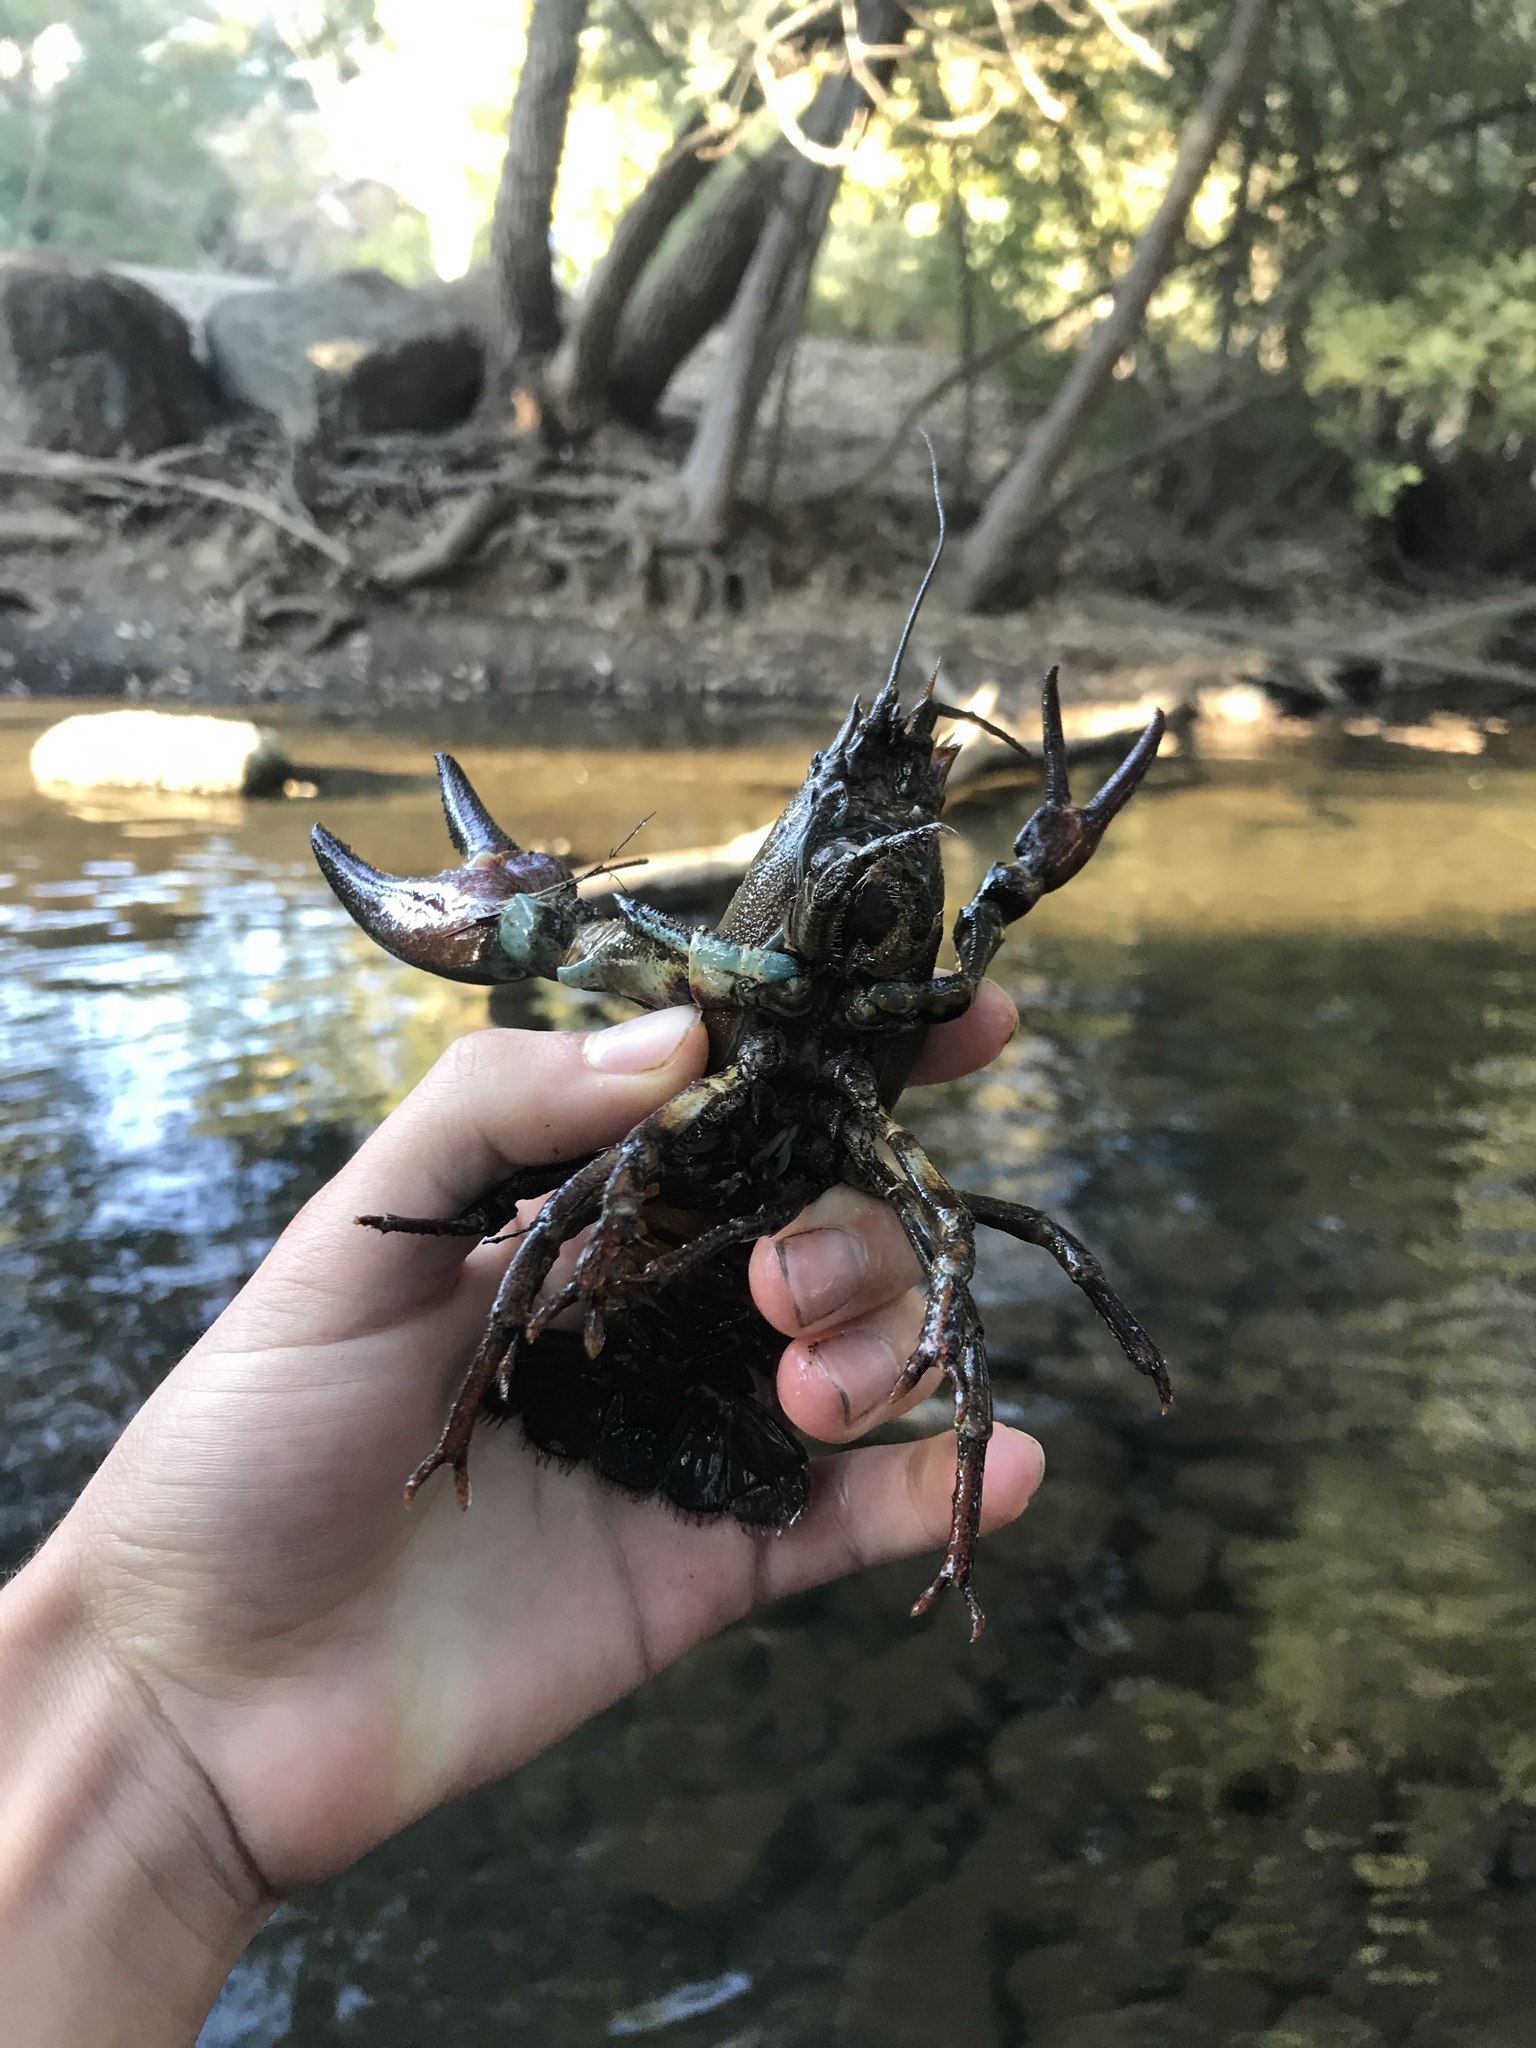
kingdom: Animalia
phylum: Arthropoda
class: Malacostraca
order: Decapoda
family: Astacidae
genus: Pacifastacus
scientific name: Pacifastacus leniusculus
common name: Signal crayfish
